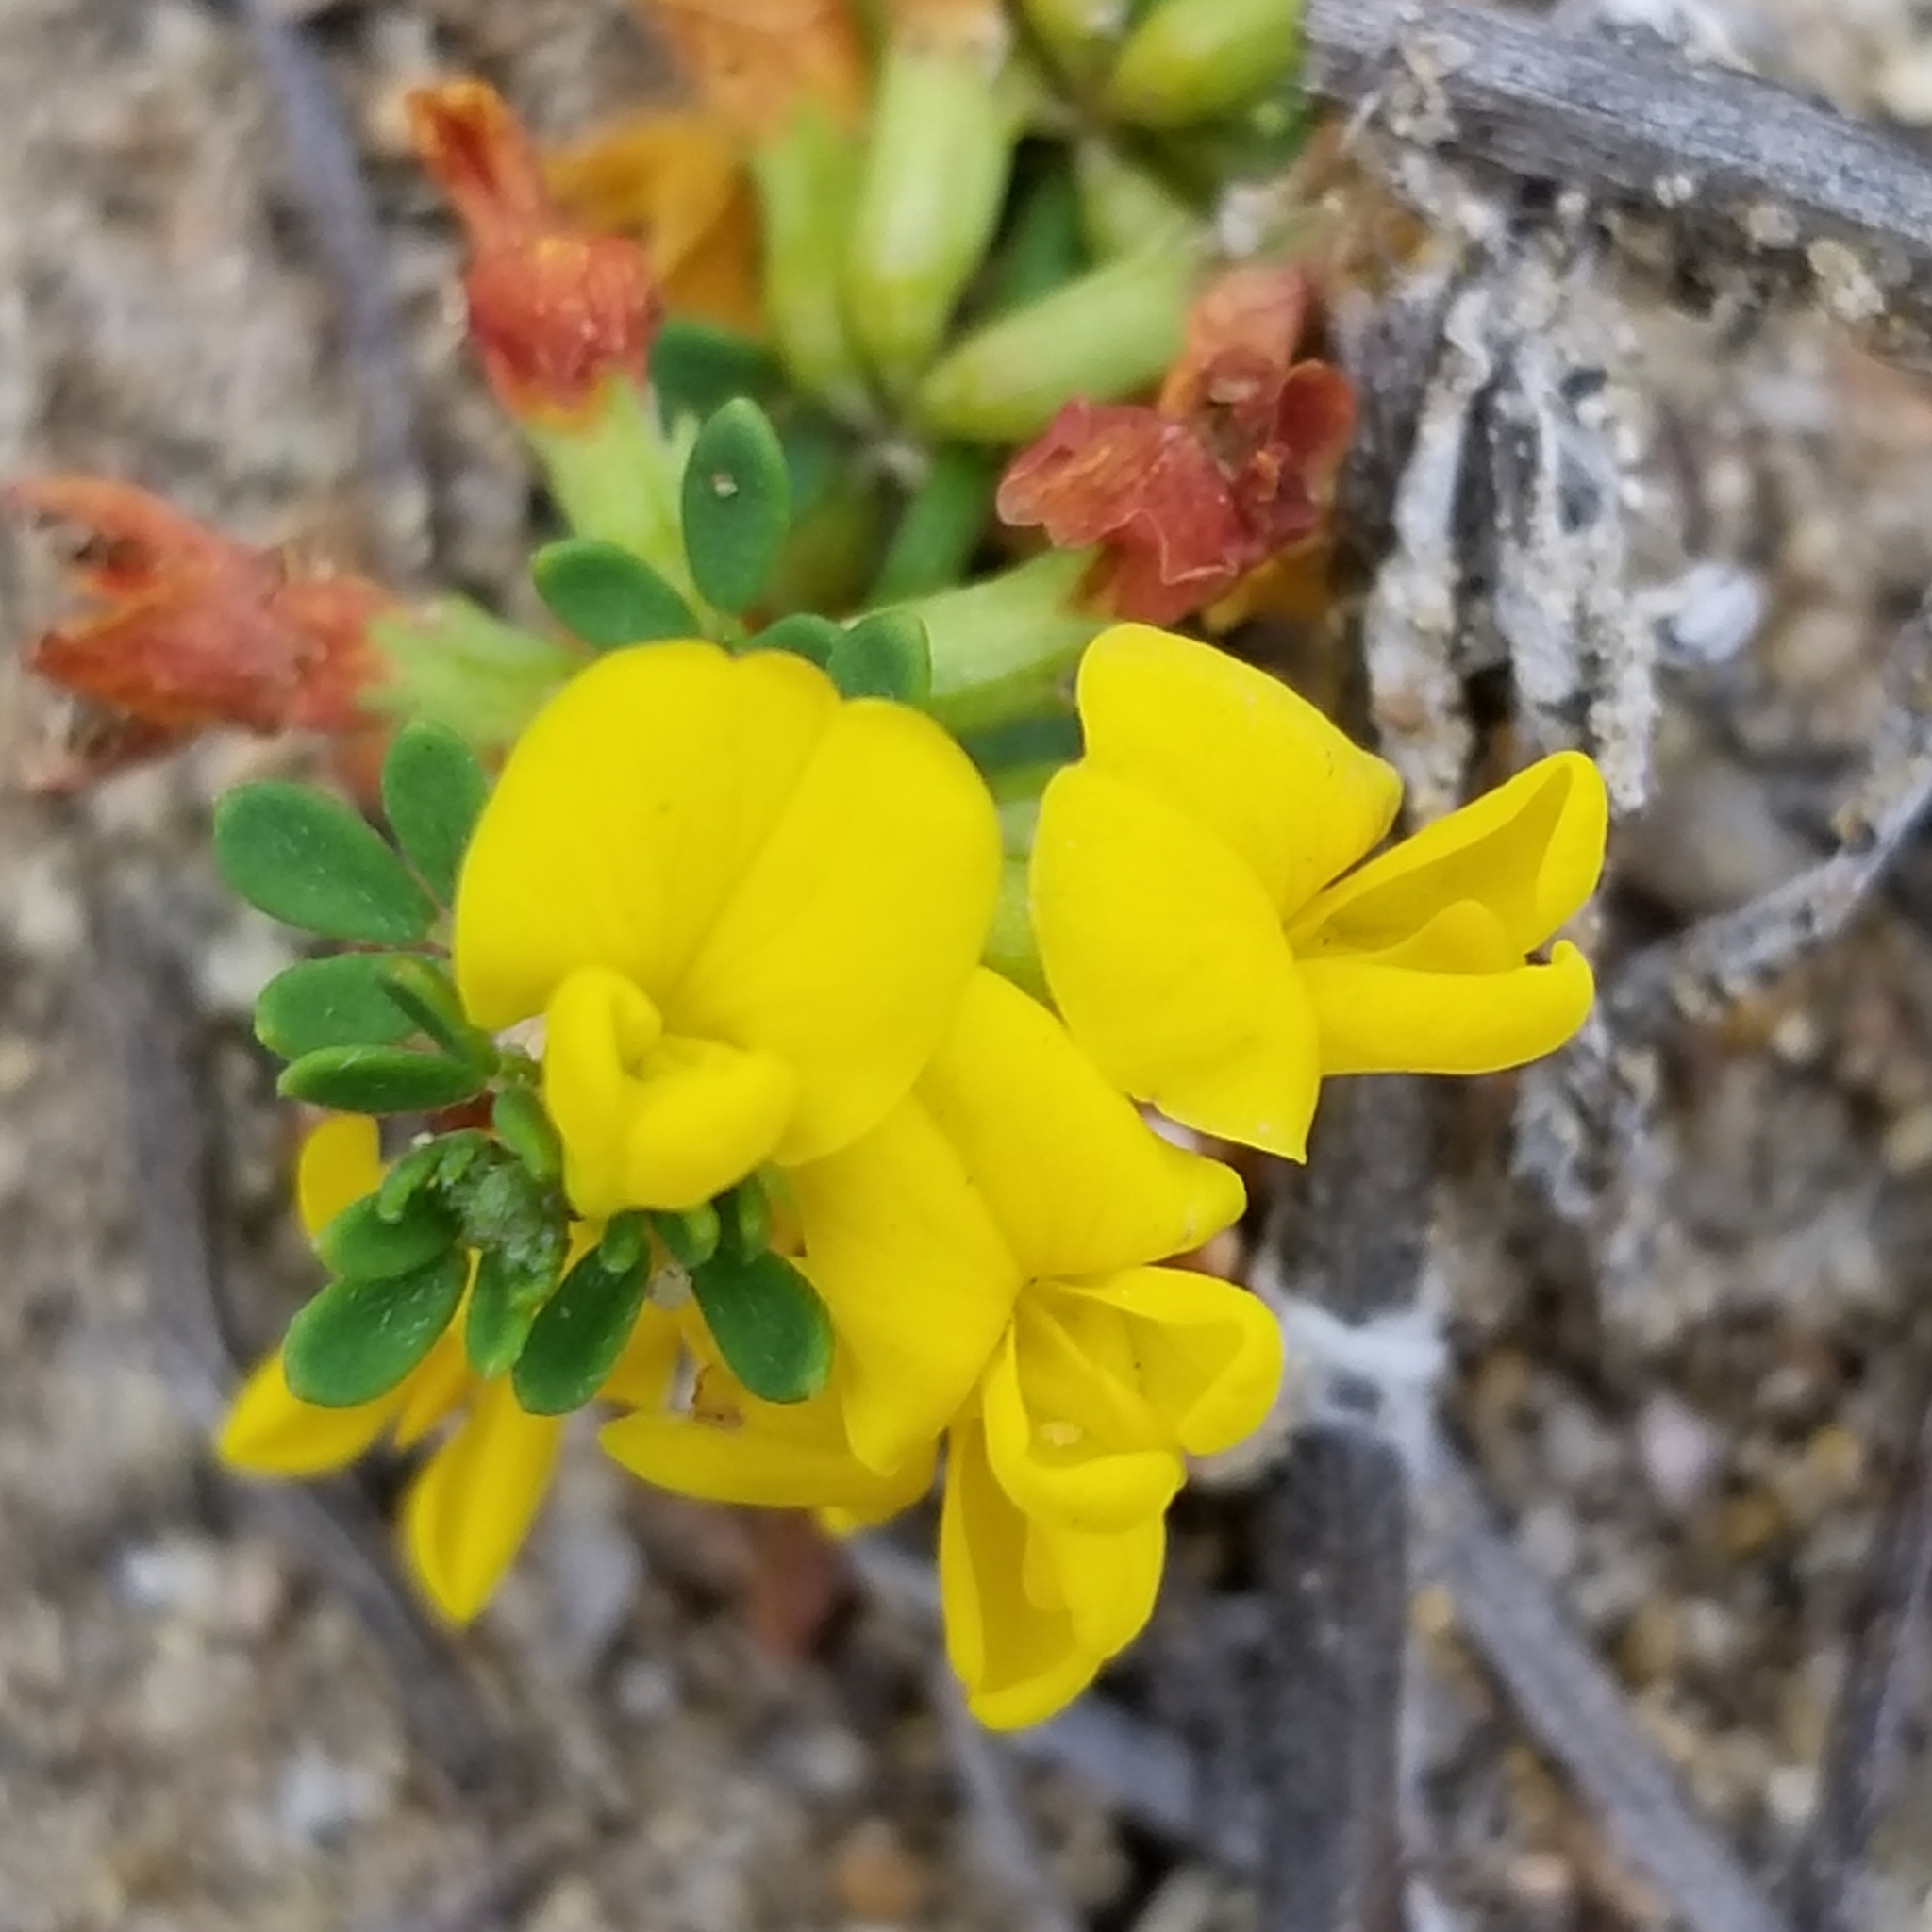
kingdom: Plantae
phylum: Tracheophyta
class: Magnoliopsida
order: Fabales
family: Fabaceae
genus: Acmispon
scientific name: Acmispon glaber
